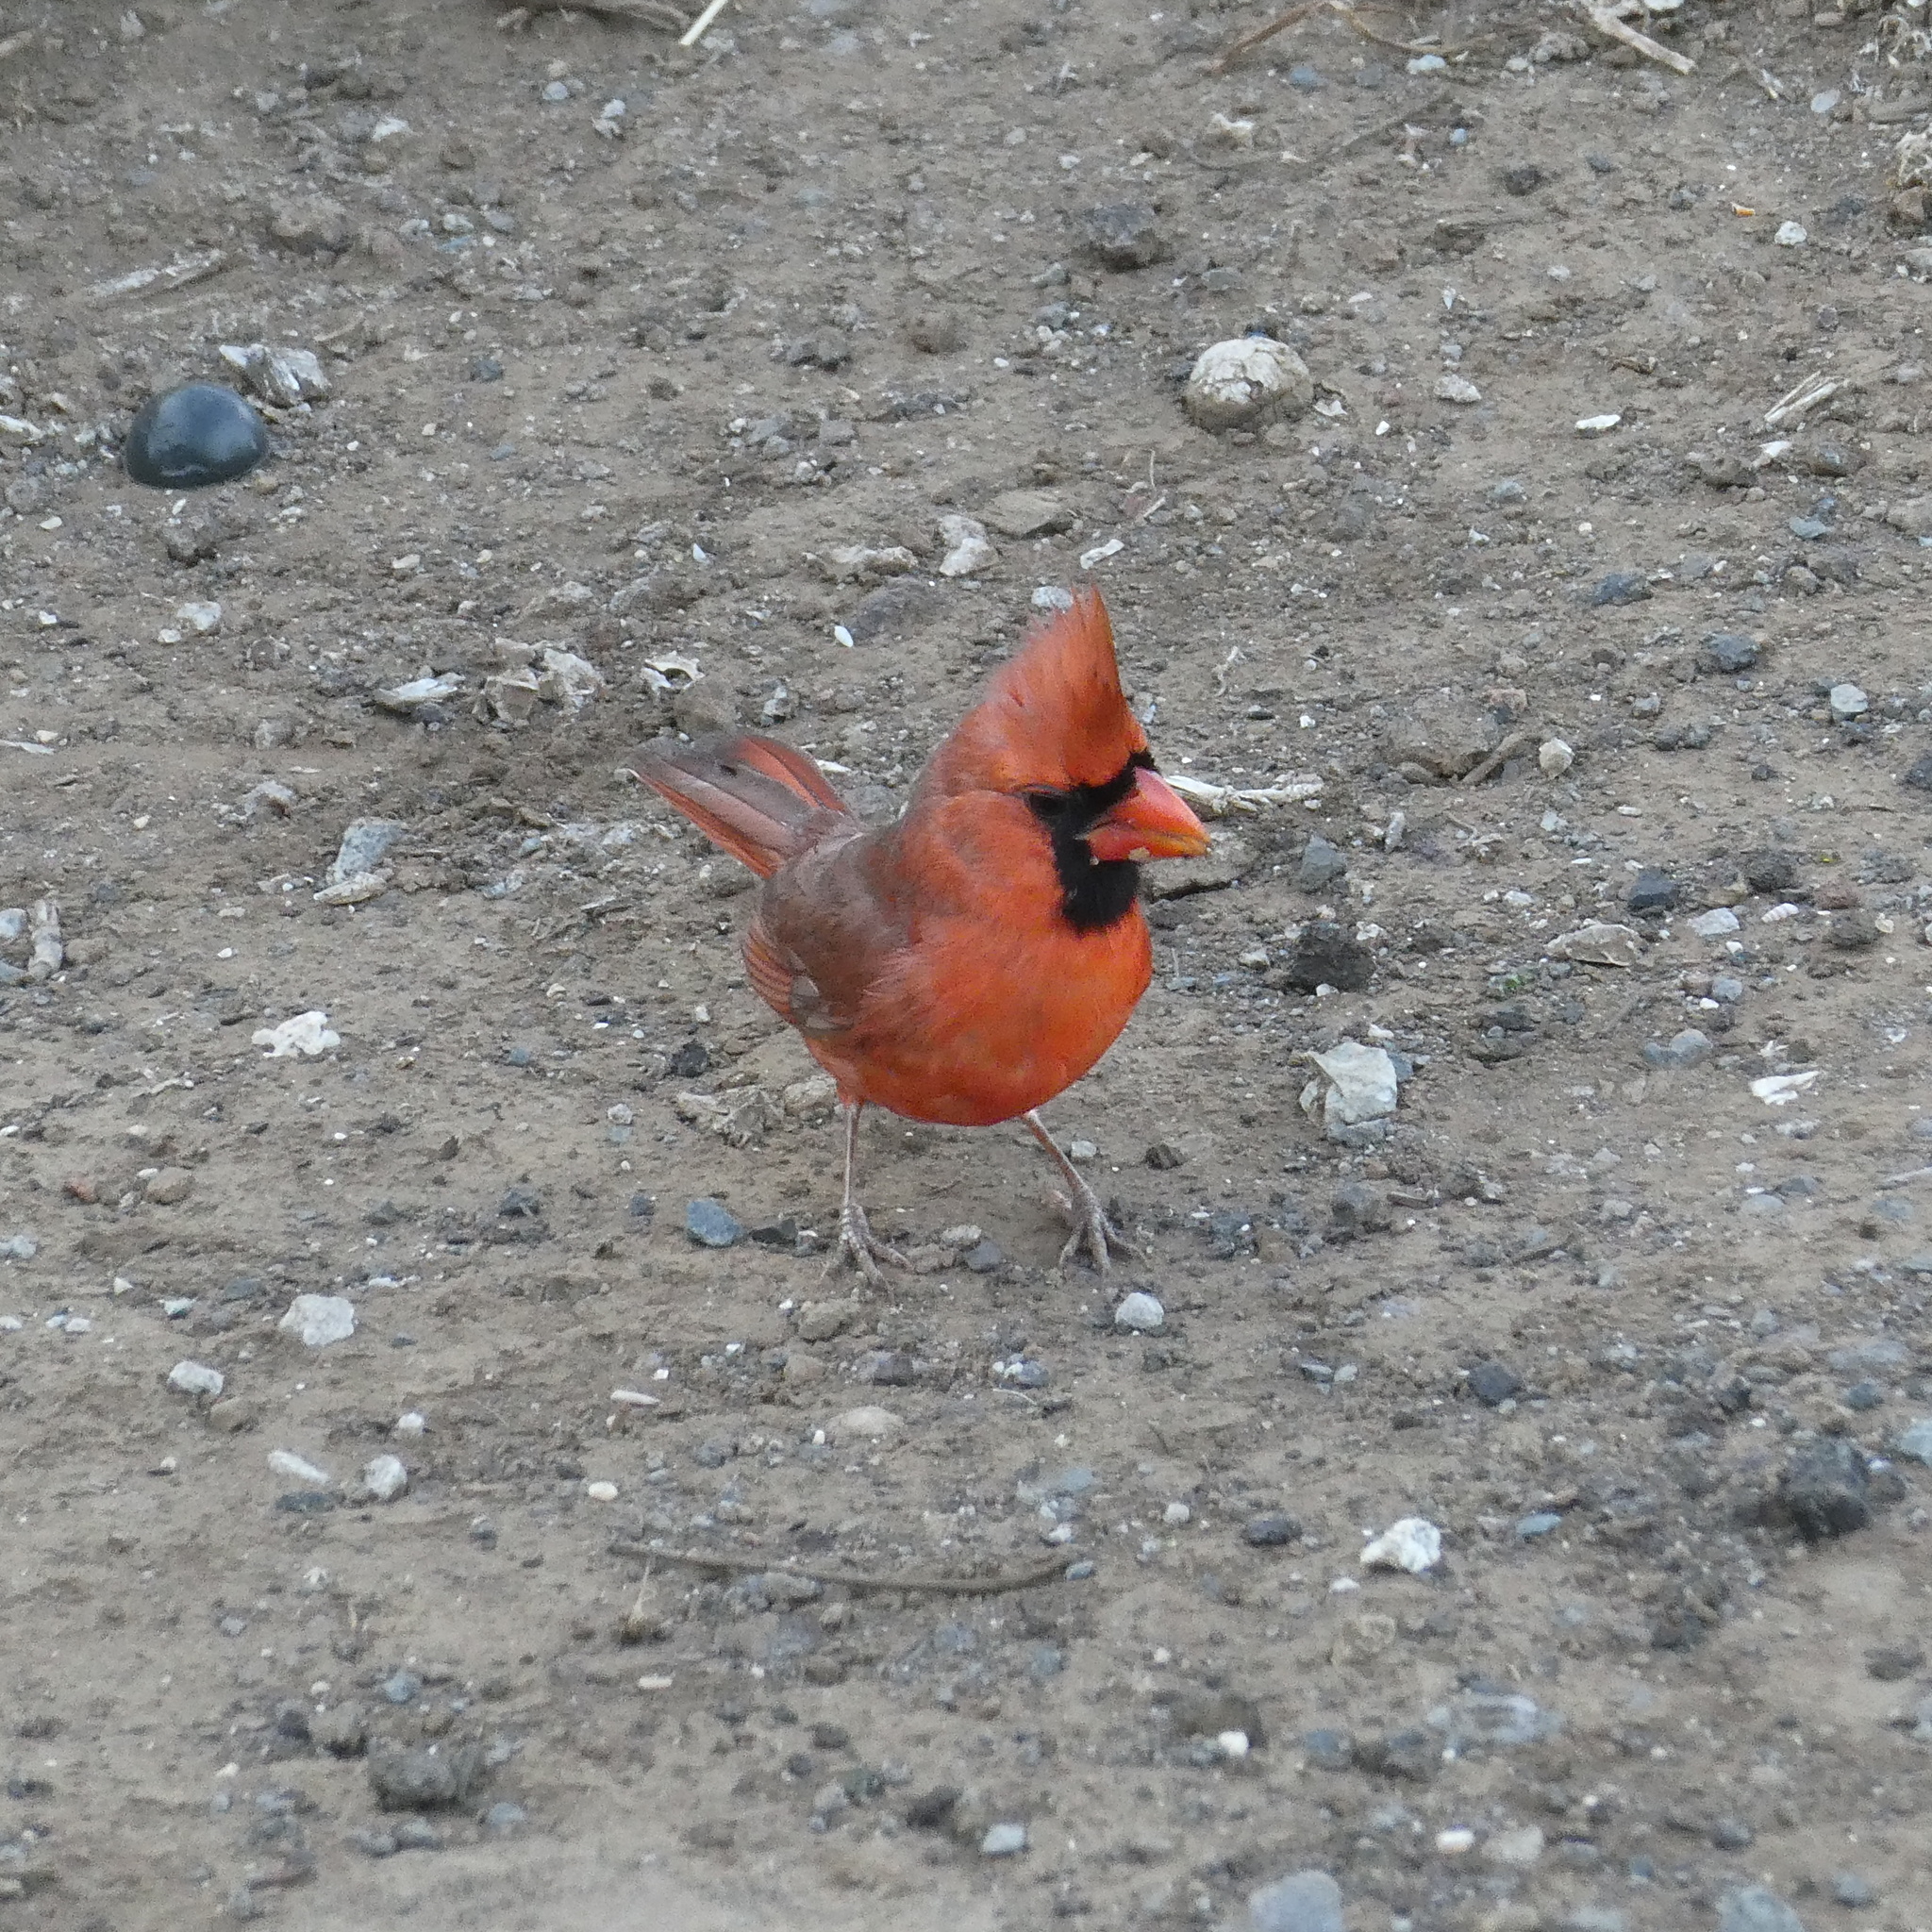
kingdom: Animalia
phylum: Chordata
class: Aves
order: Passeriformes
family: Cardinalidae
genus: Cardinalis
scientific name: Cardinalis cardinalis
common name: Northern cardinal
